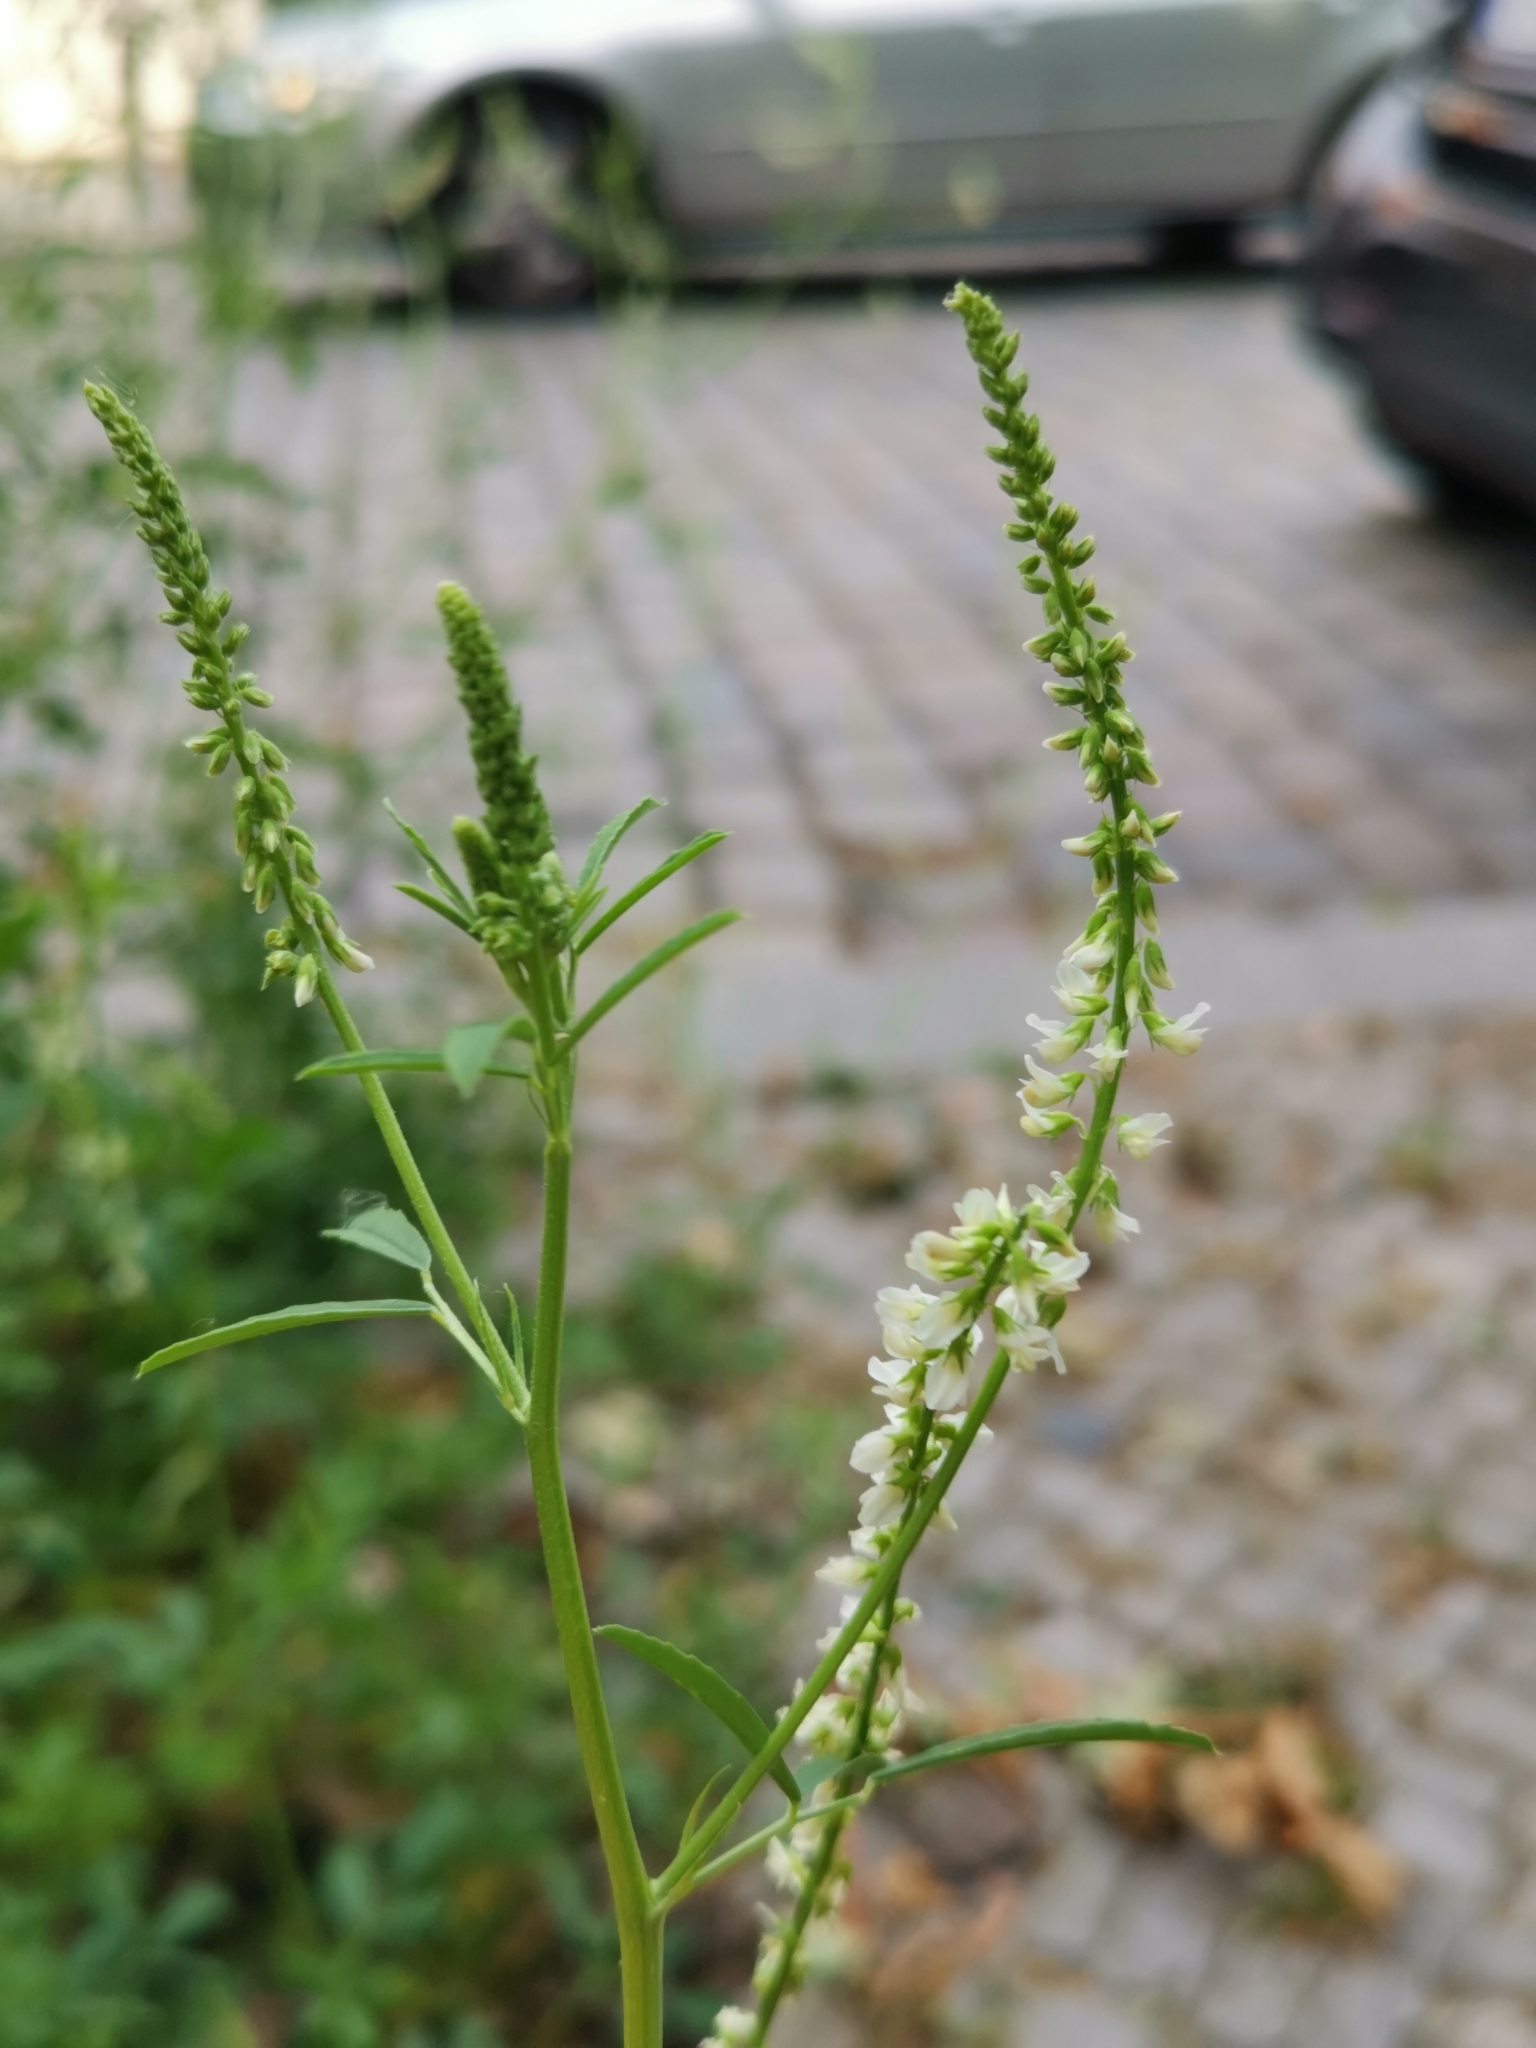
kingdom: Plantae
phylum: Tracheophyta
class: Magnoliopsida
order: Fabales
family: Fabaceae
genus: Melilotus
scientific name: Melilotus albus
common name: White melilot
